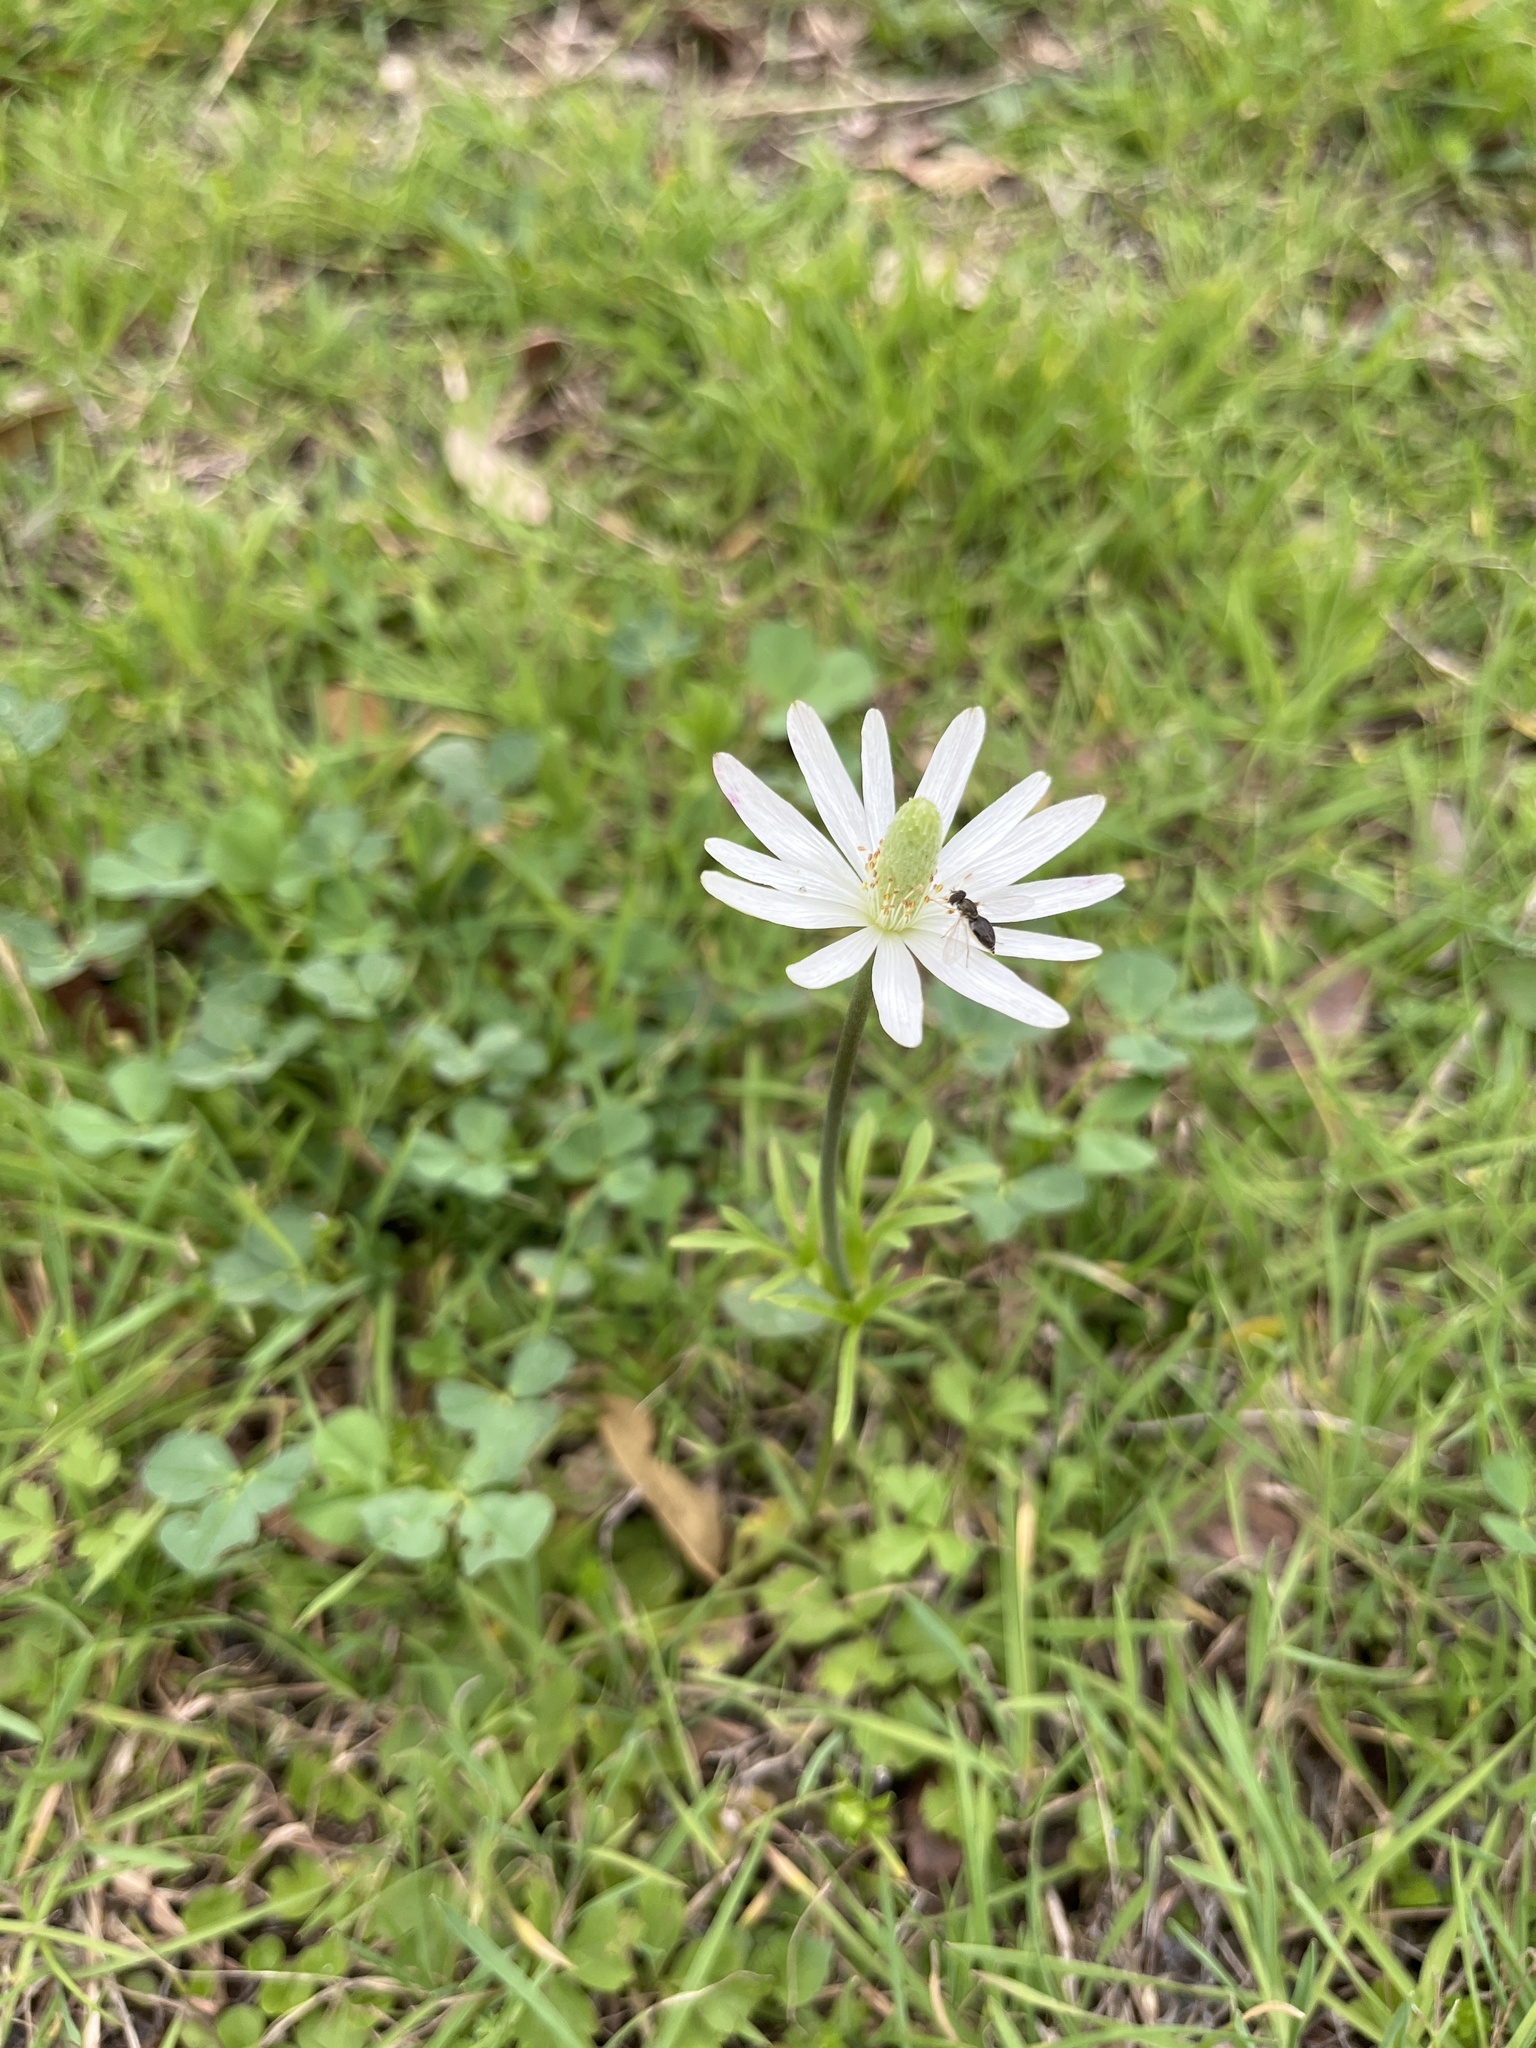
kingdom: Plantae
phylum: Tracheophyta
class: Magnoliopsida
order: Ranunculales
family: Ranunculaceae
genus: Anemone
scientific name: Anemone berlandieri
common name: Ten-petal anemone
